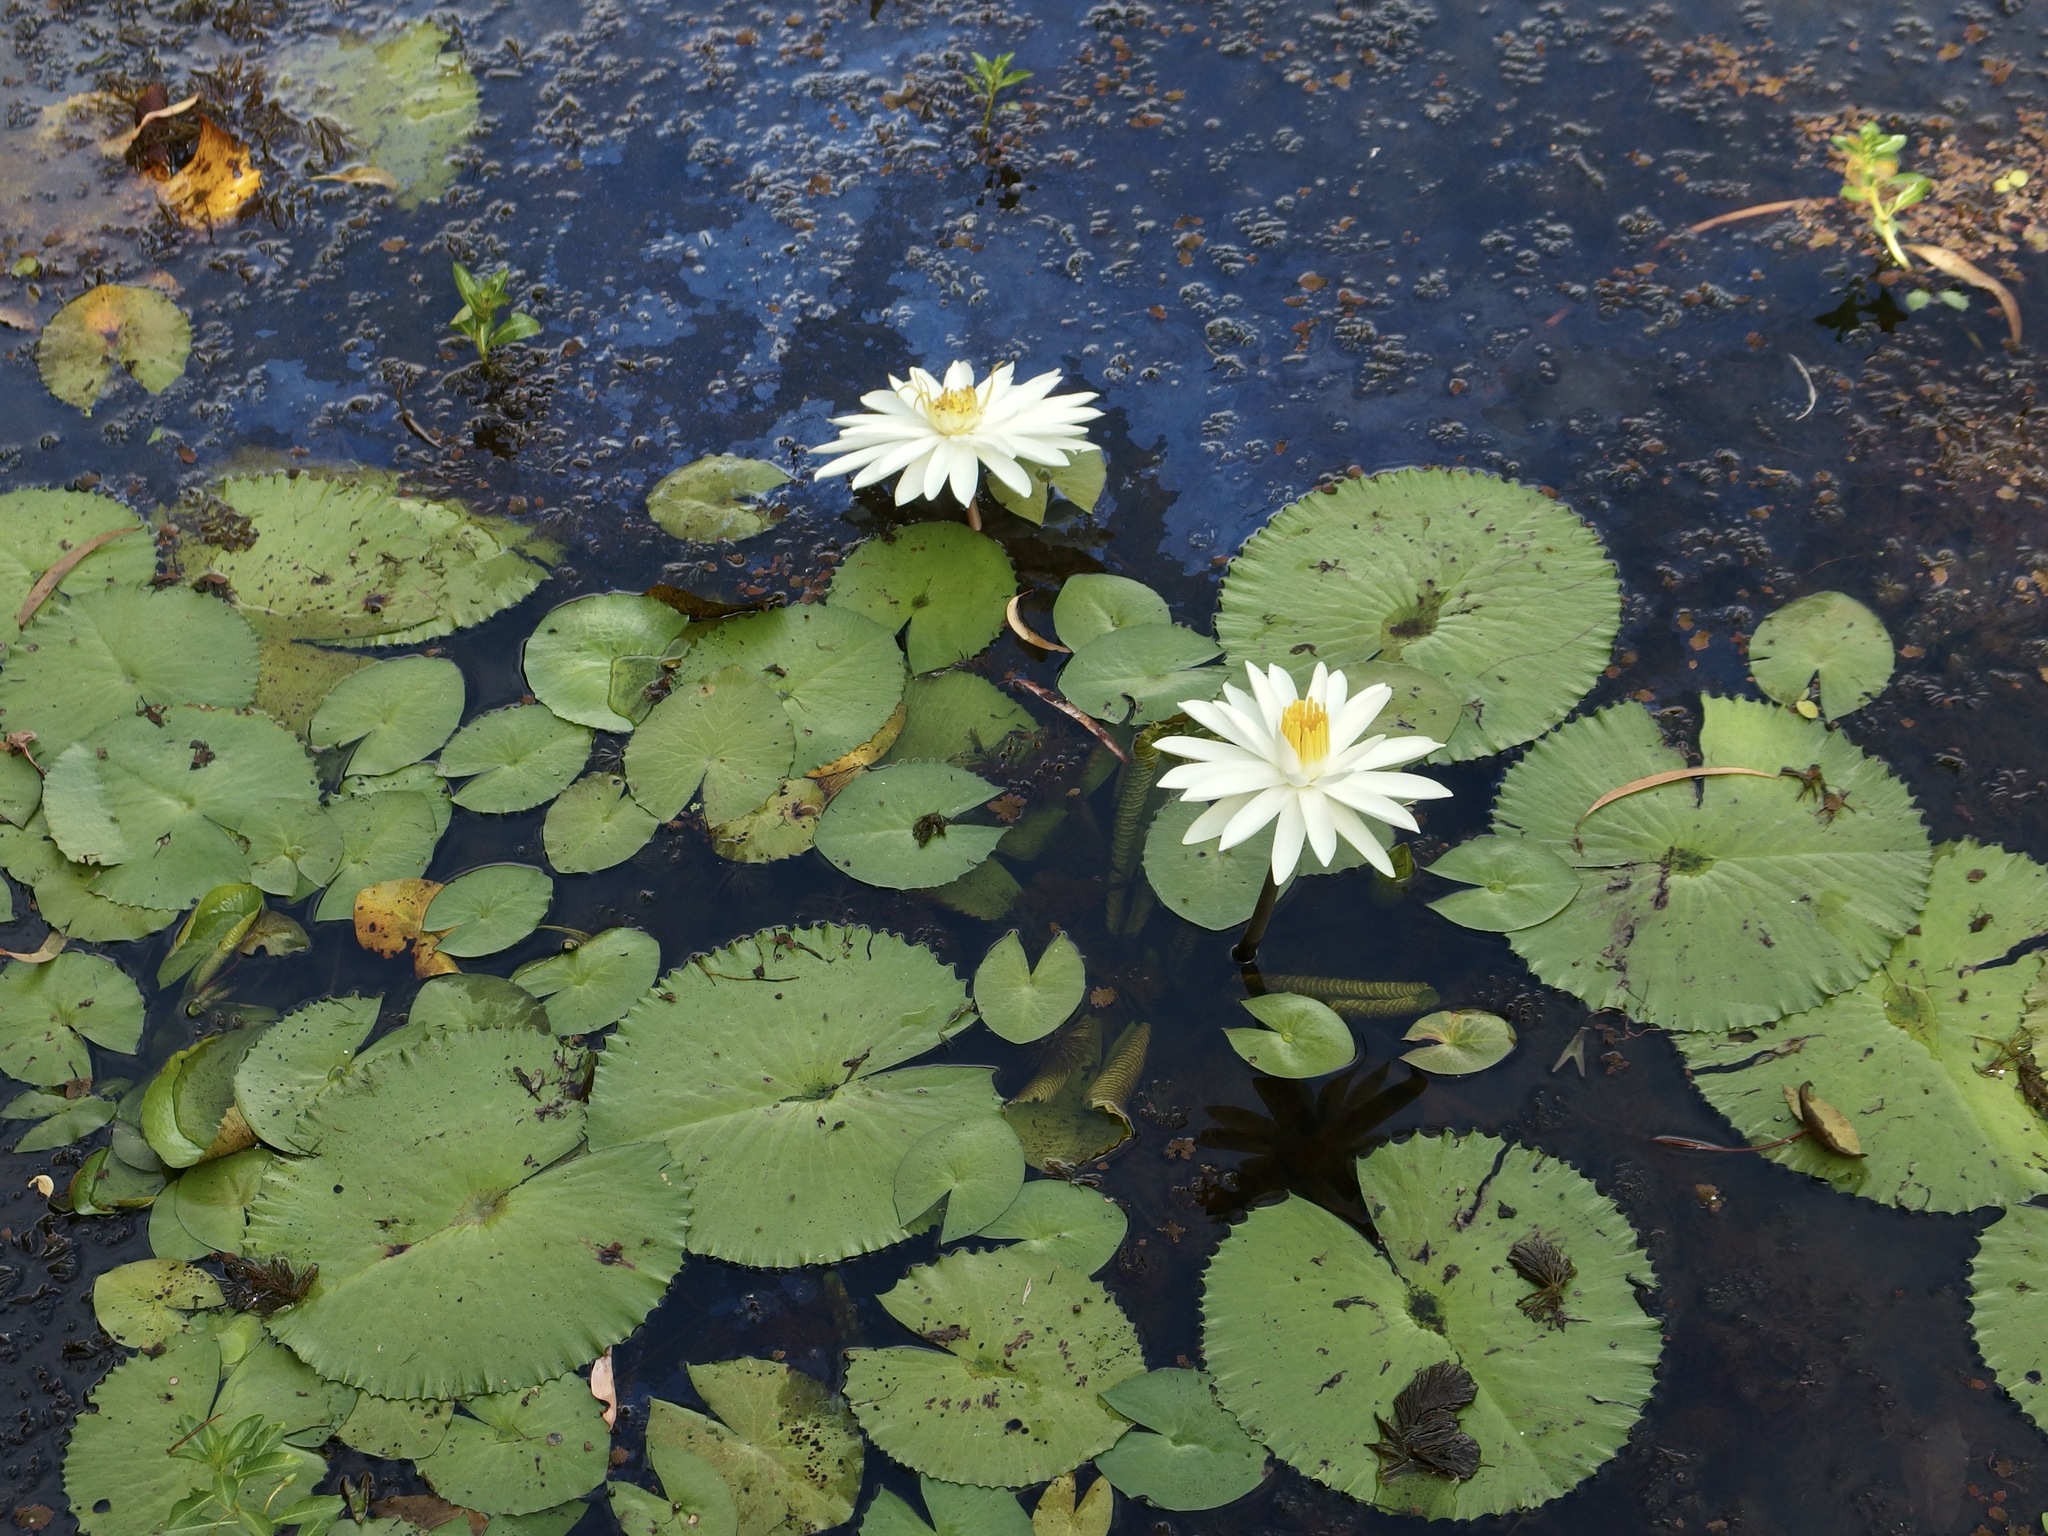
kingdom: Plantae
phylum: Tracheophyta
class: Magnoliopsida
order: Nymphaeales
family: Nymphaeaceae
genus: Nymphaea
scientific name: Nymphaea pubescens
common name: Hairy water lily
